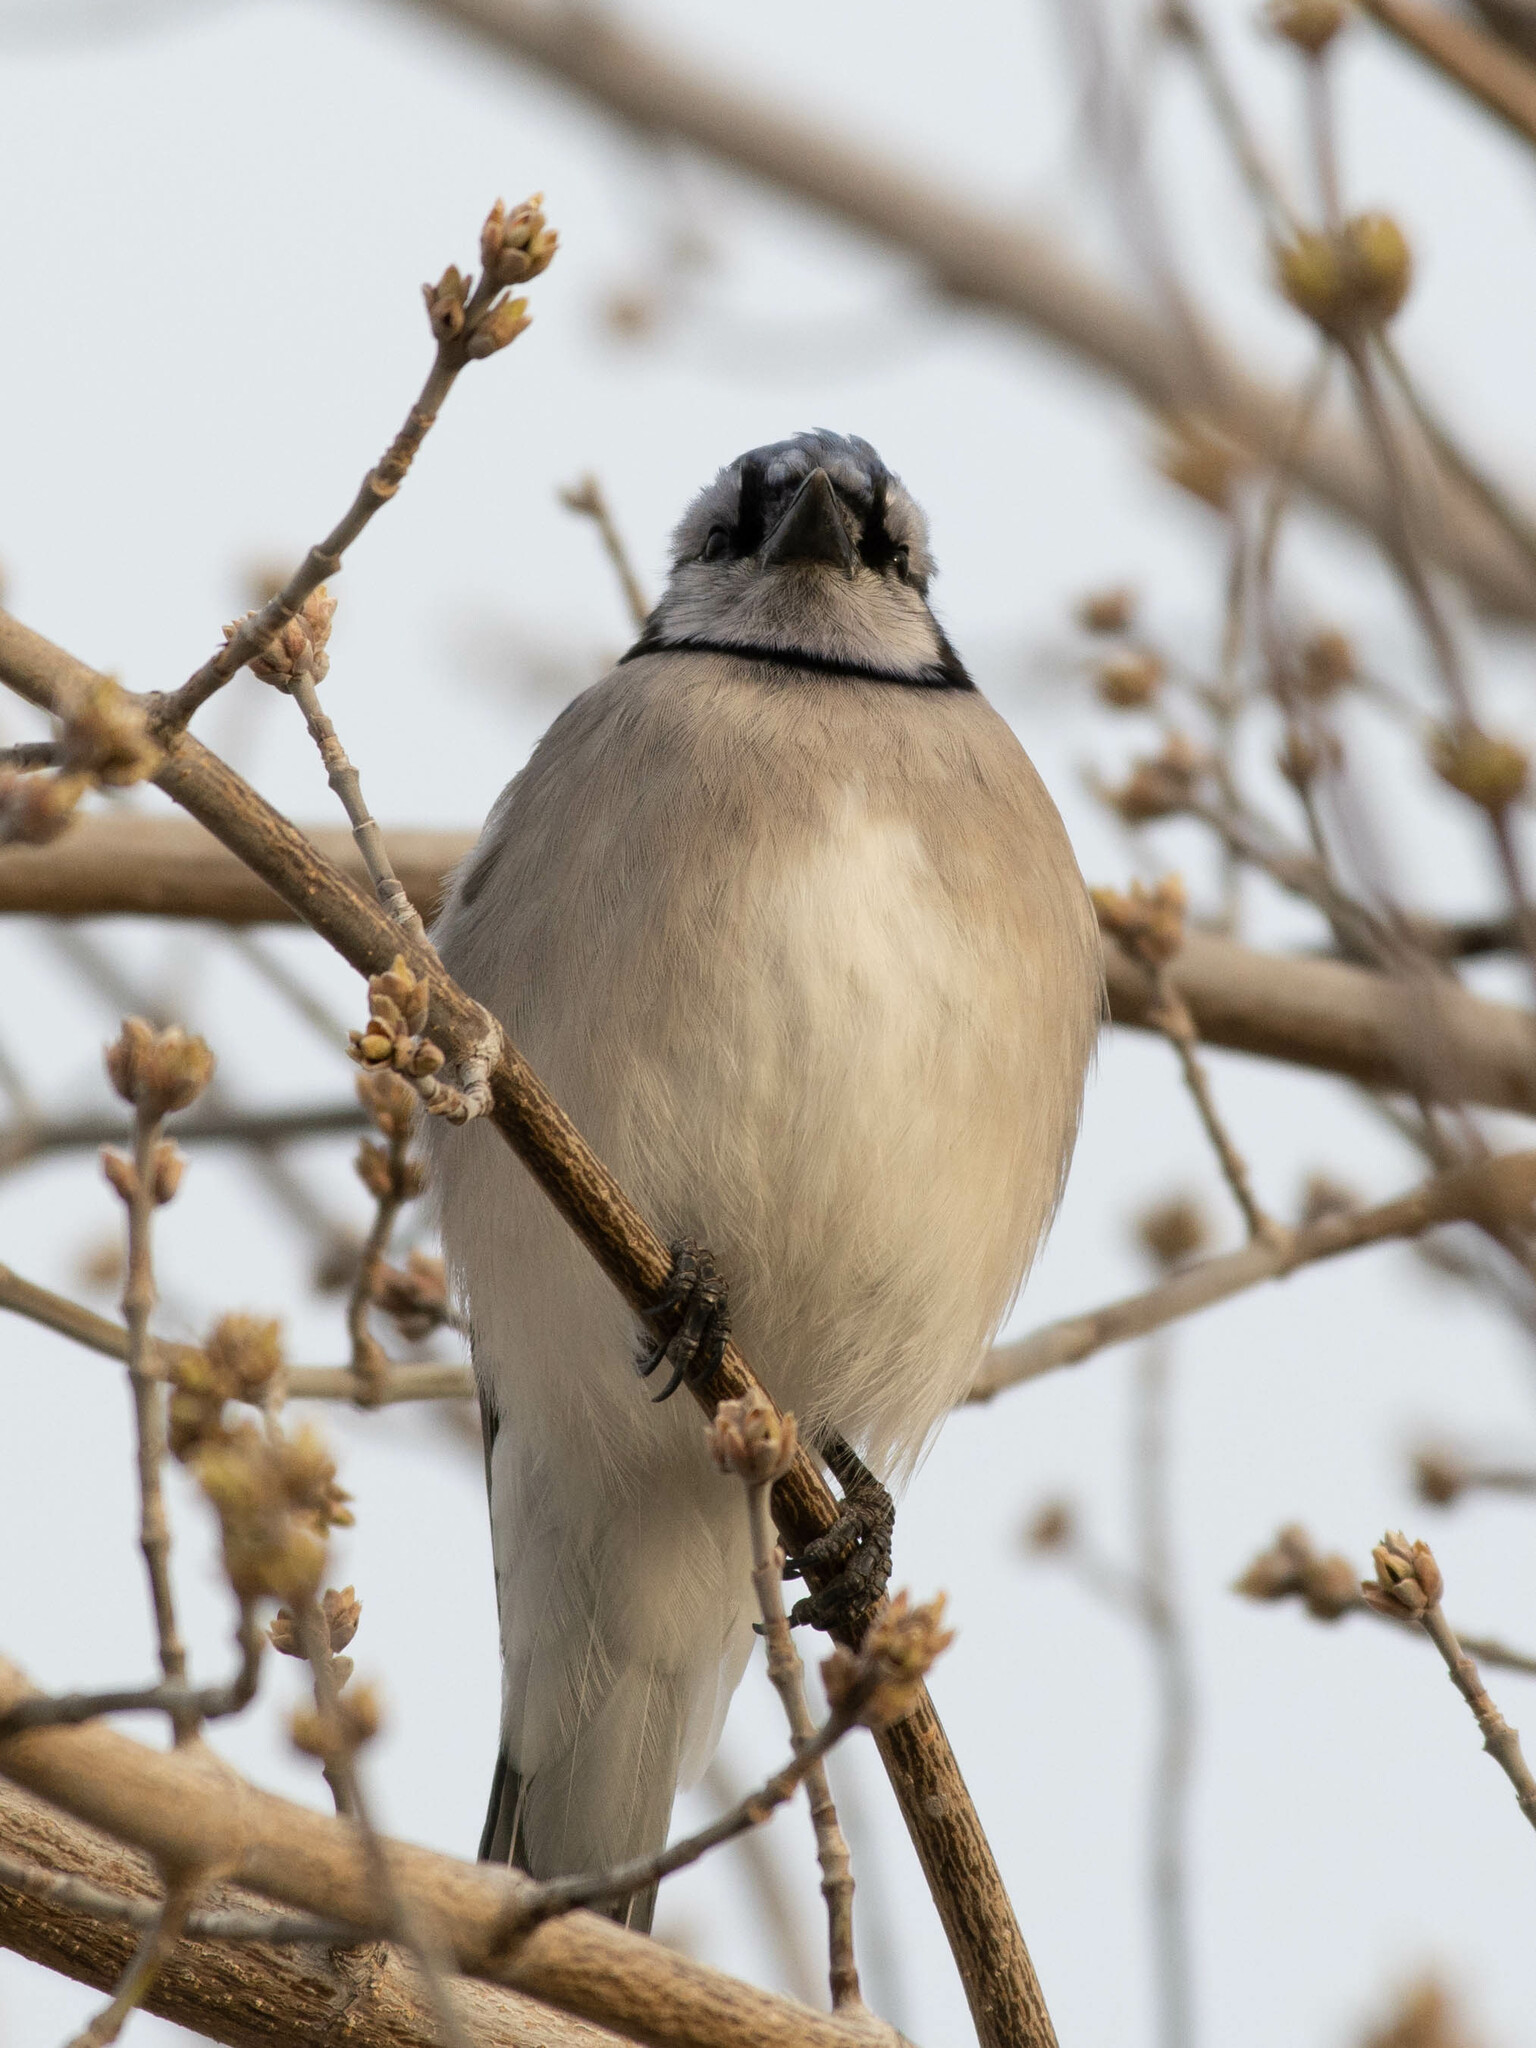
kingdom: Animalia
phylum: Chordata
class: Aves
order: Passeriformes
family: Corvidae
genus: Cyanocitta
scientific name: Cyanocitta cristata
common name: Blue jay
